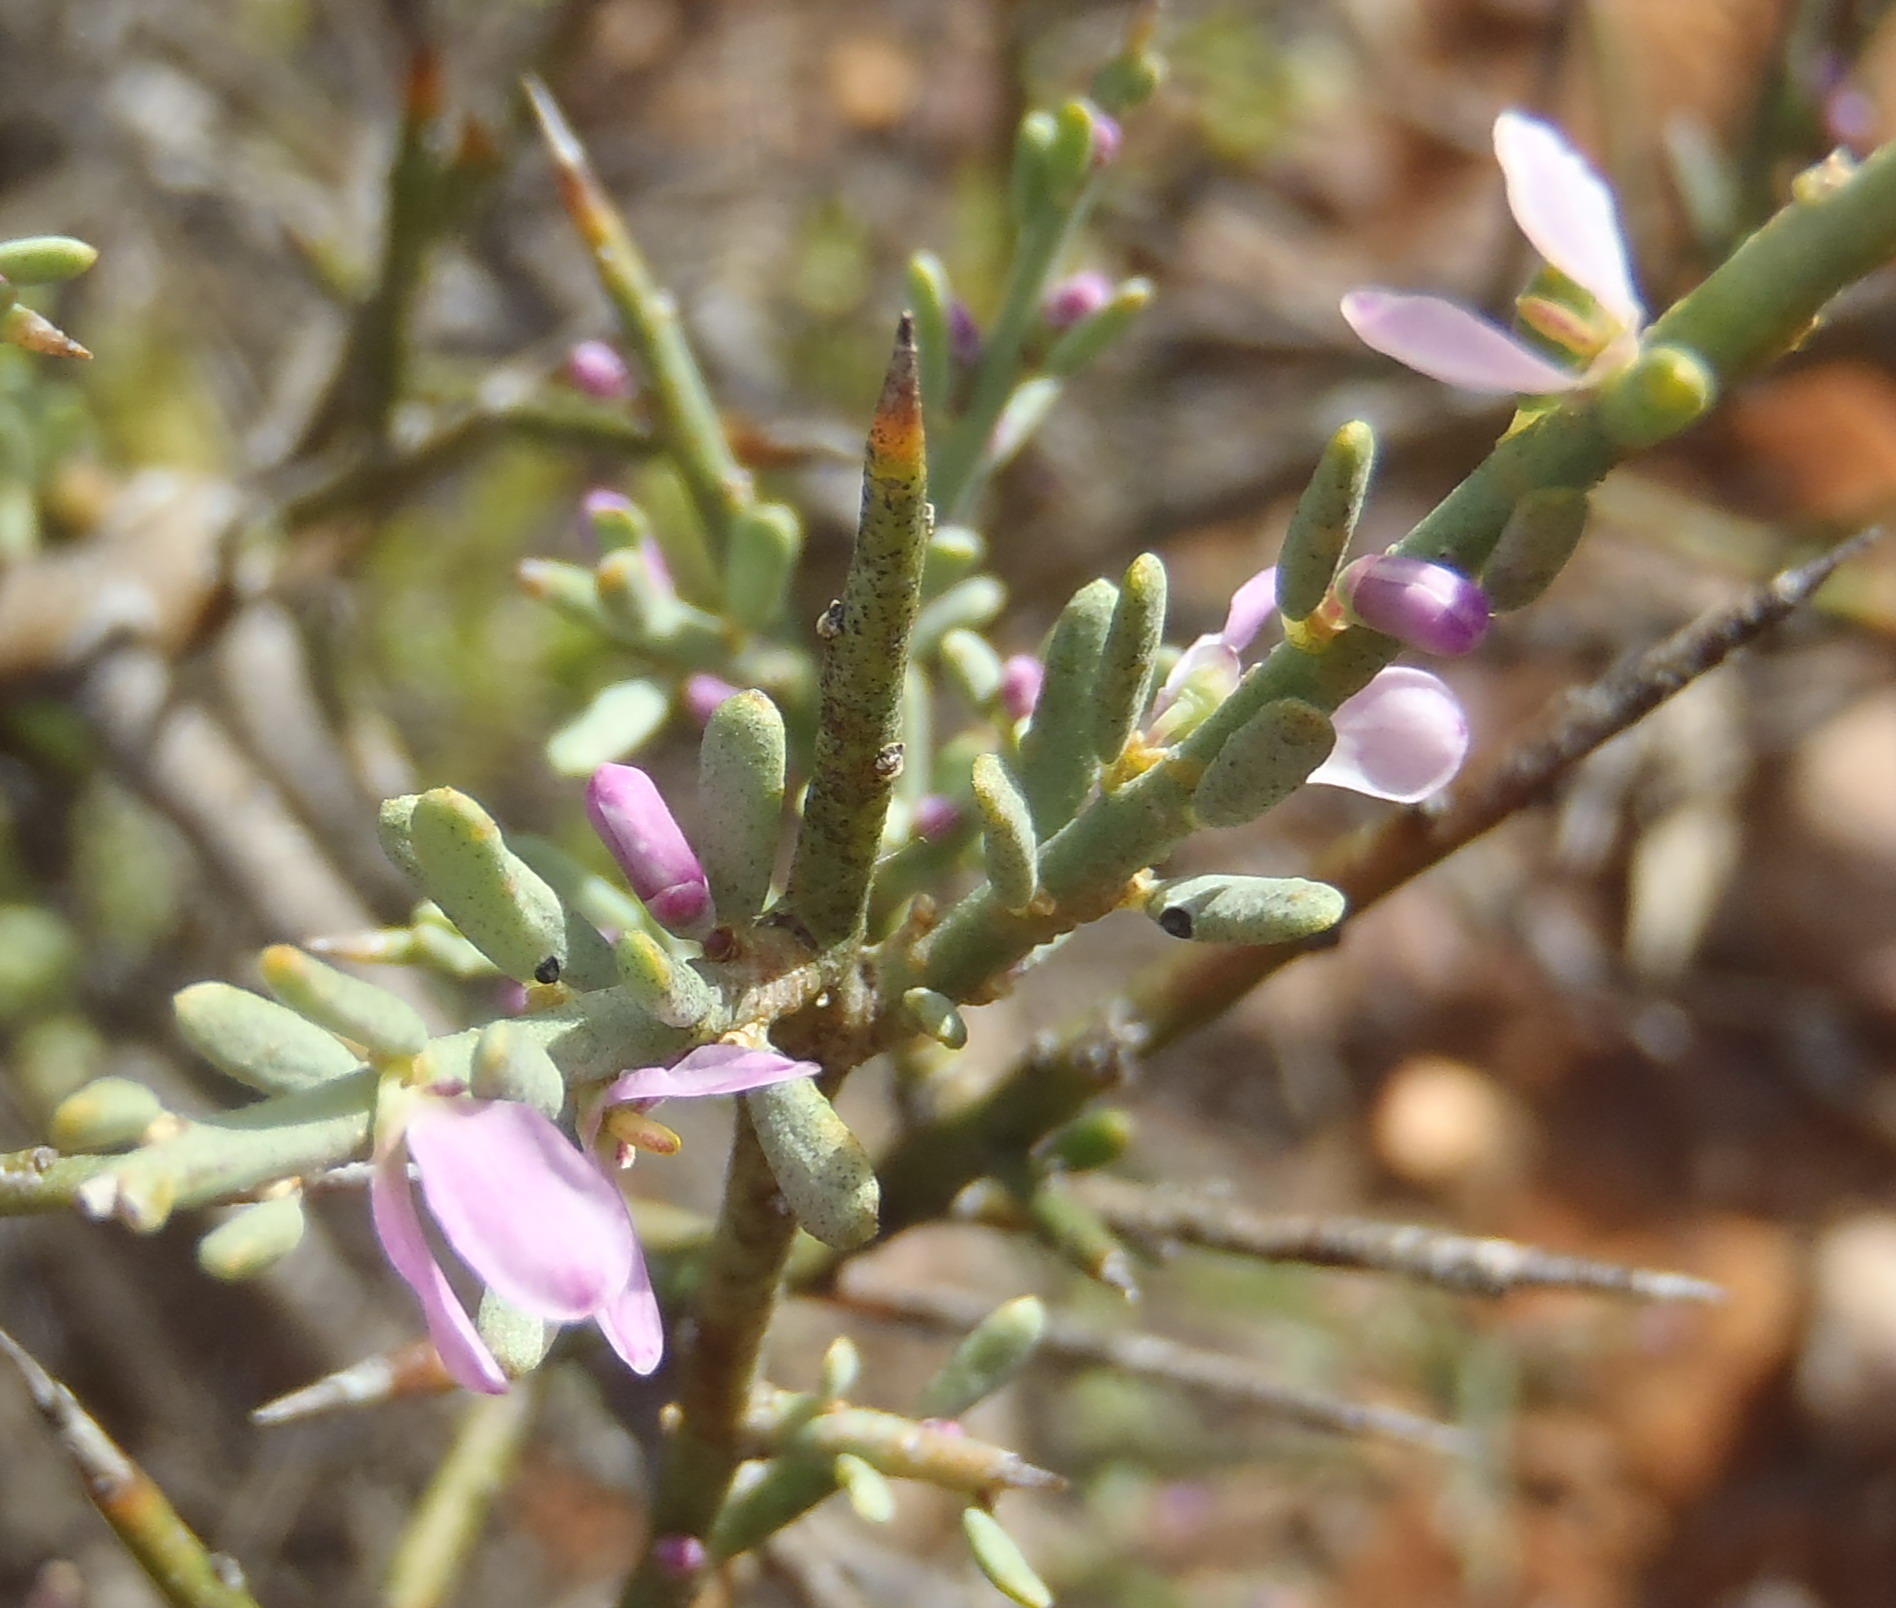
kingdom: Plantae
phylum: Tracheophyta
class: Magnoliopsida
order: Fabales
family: Polygalaceae
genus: Muraltia
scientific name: Muraltia spinosa
